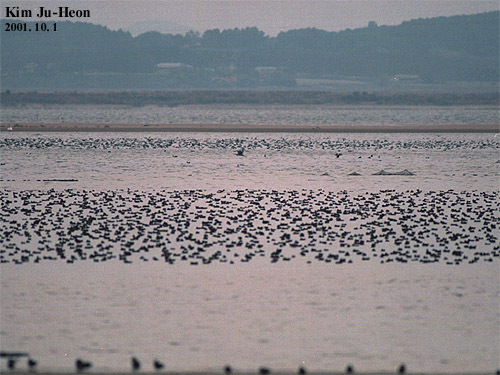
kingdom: Animalia
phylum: Chordata
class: Aves
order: Anseriformes
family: Anatidae
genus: Sibirionetta
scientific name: Sibirionetta formosa
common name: Baikal teal
